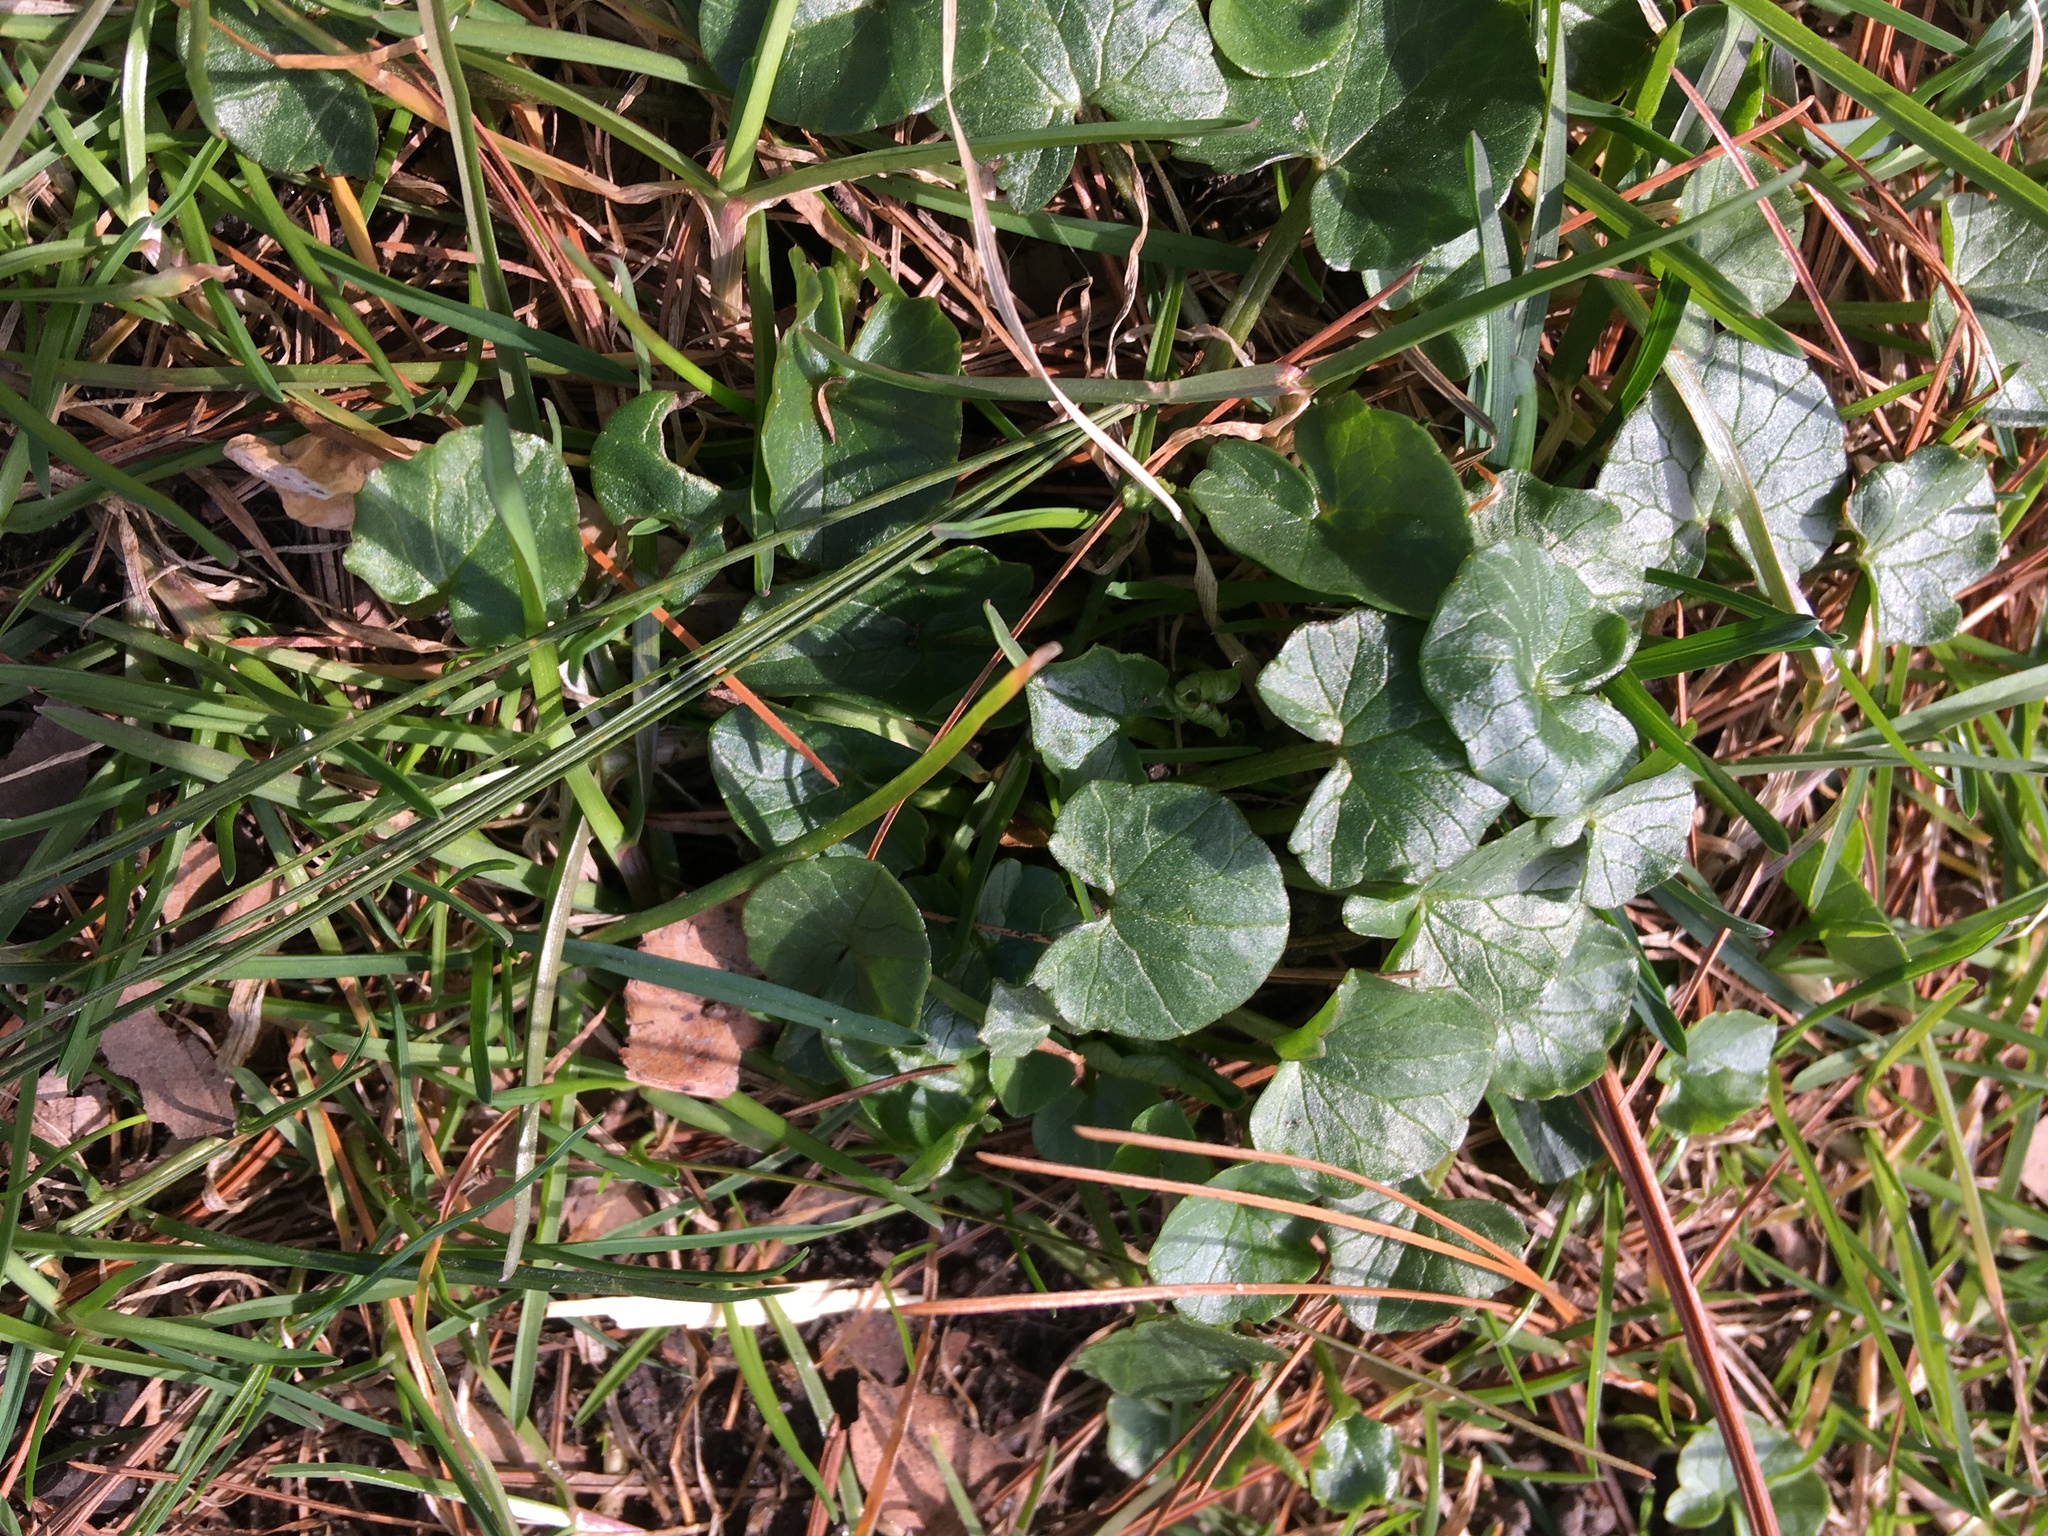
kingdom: Plantae
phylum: Tracheophyta
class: Magnoliopsida
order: Ranunculales
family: Ranunculaceae
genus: Ficaria
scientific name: Ficaria verna
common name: Lesser celandine
